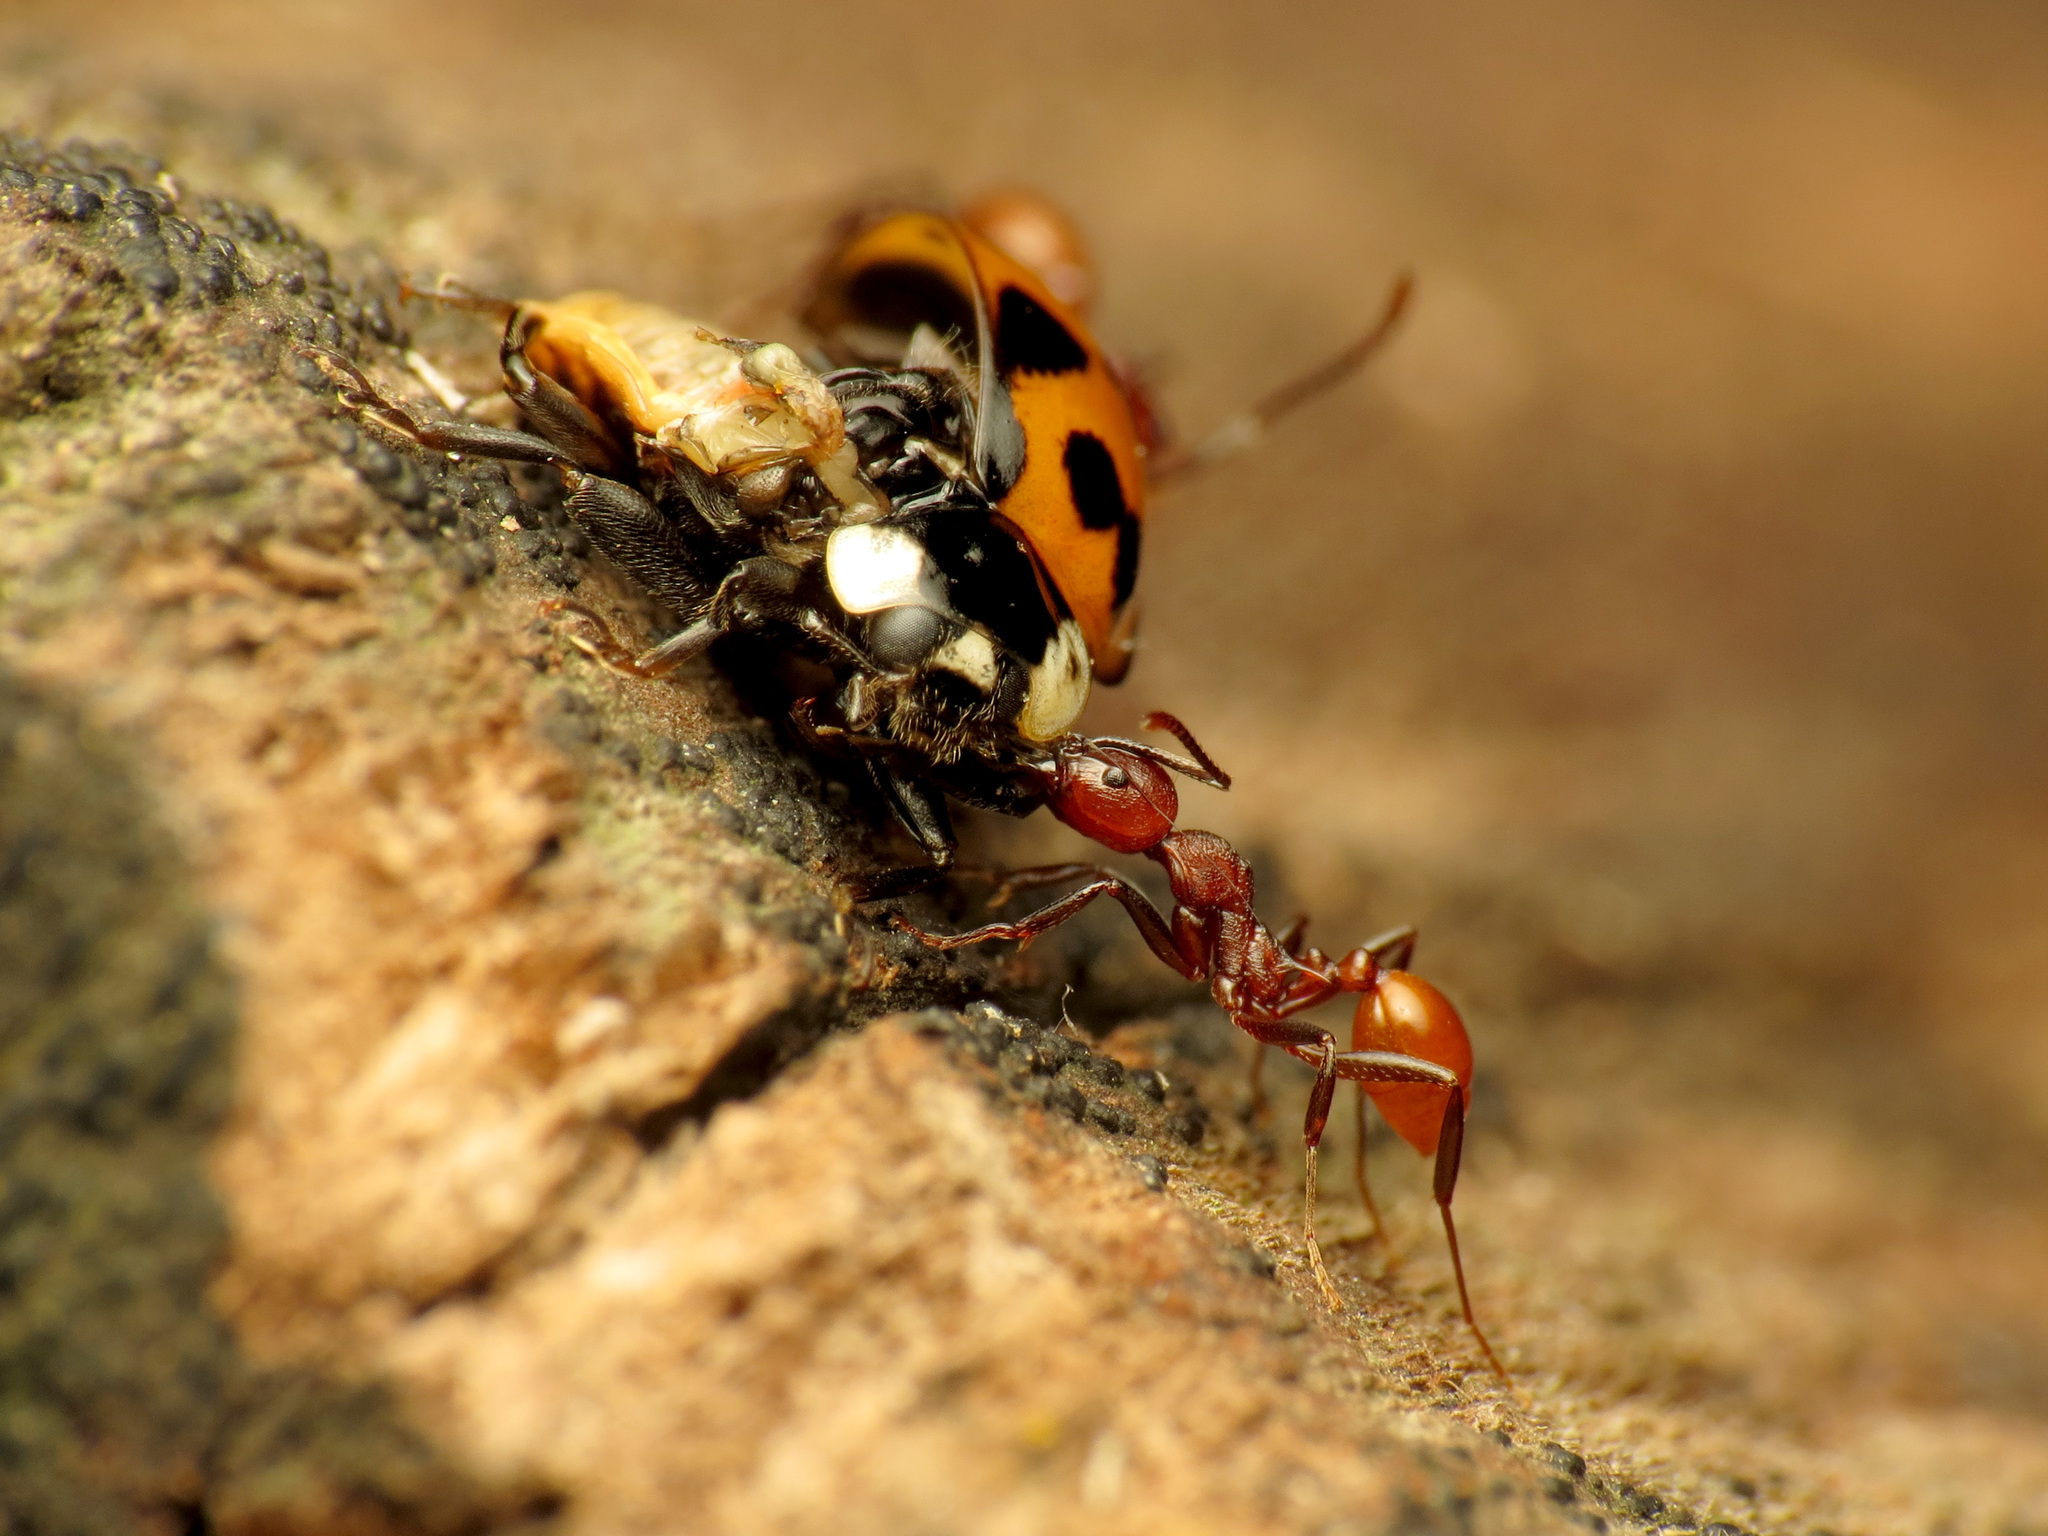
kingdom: Animalia
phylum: Arthropoda
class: Insecta
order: Hymenoptera
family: Formicidae
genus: Aphaenogaster
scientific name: Aphaenogaster tennesseensis
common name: Tennessee thread-waisted ant
